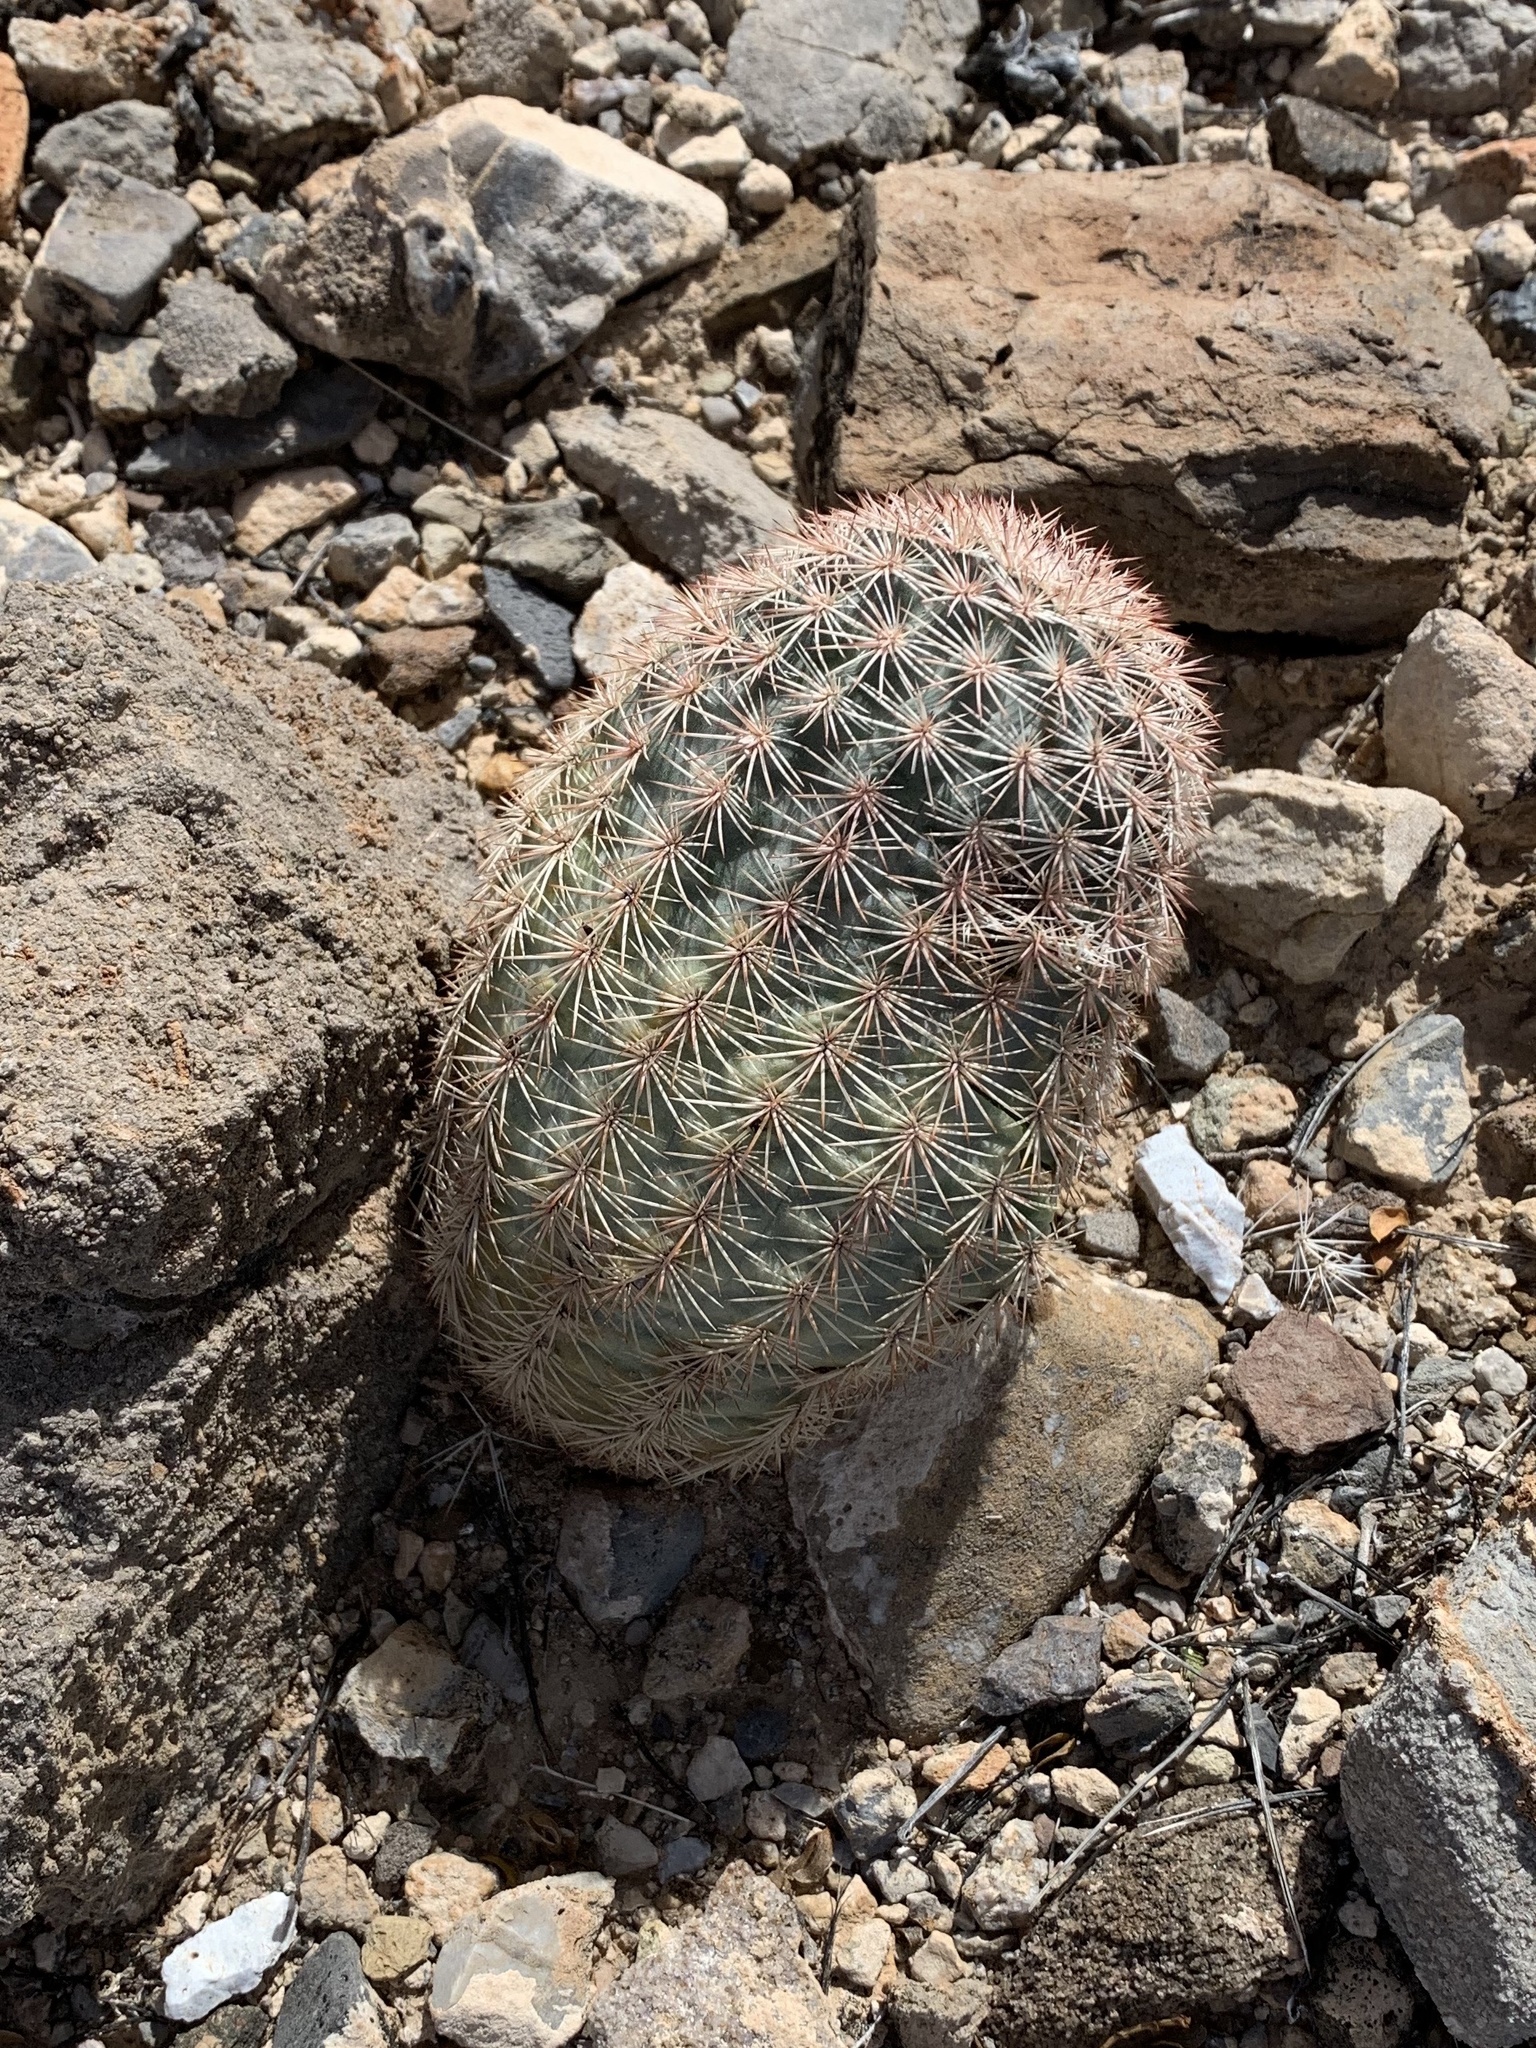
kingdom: Plantae
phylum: Tracheophyta
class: Magnoliopsida
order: Caryophyllales
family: Cactaceae
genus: Echinocereus
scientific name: Echinocereus dasyacanthus
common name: Spiny hedgehog cactus
